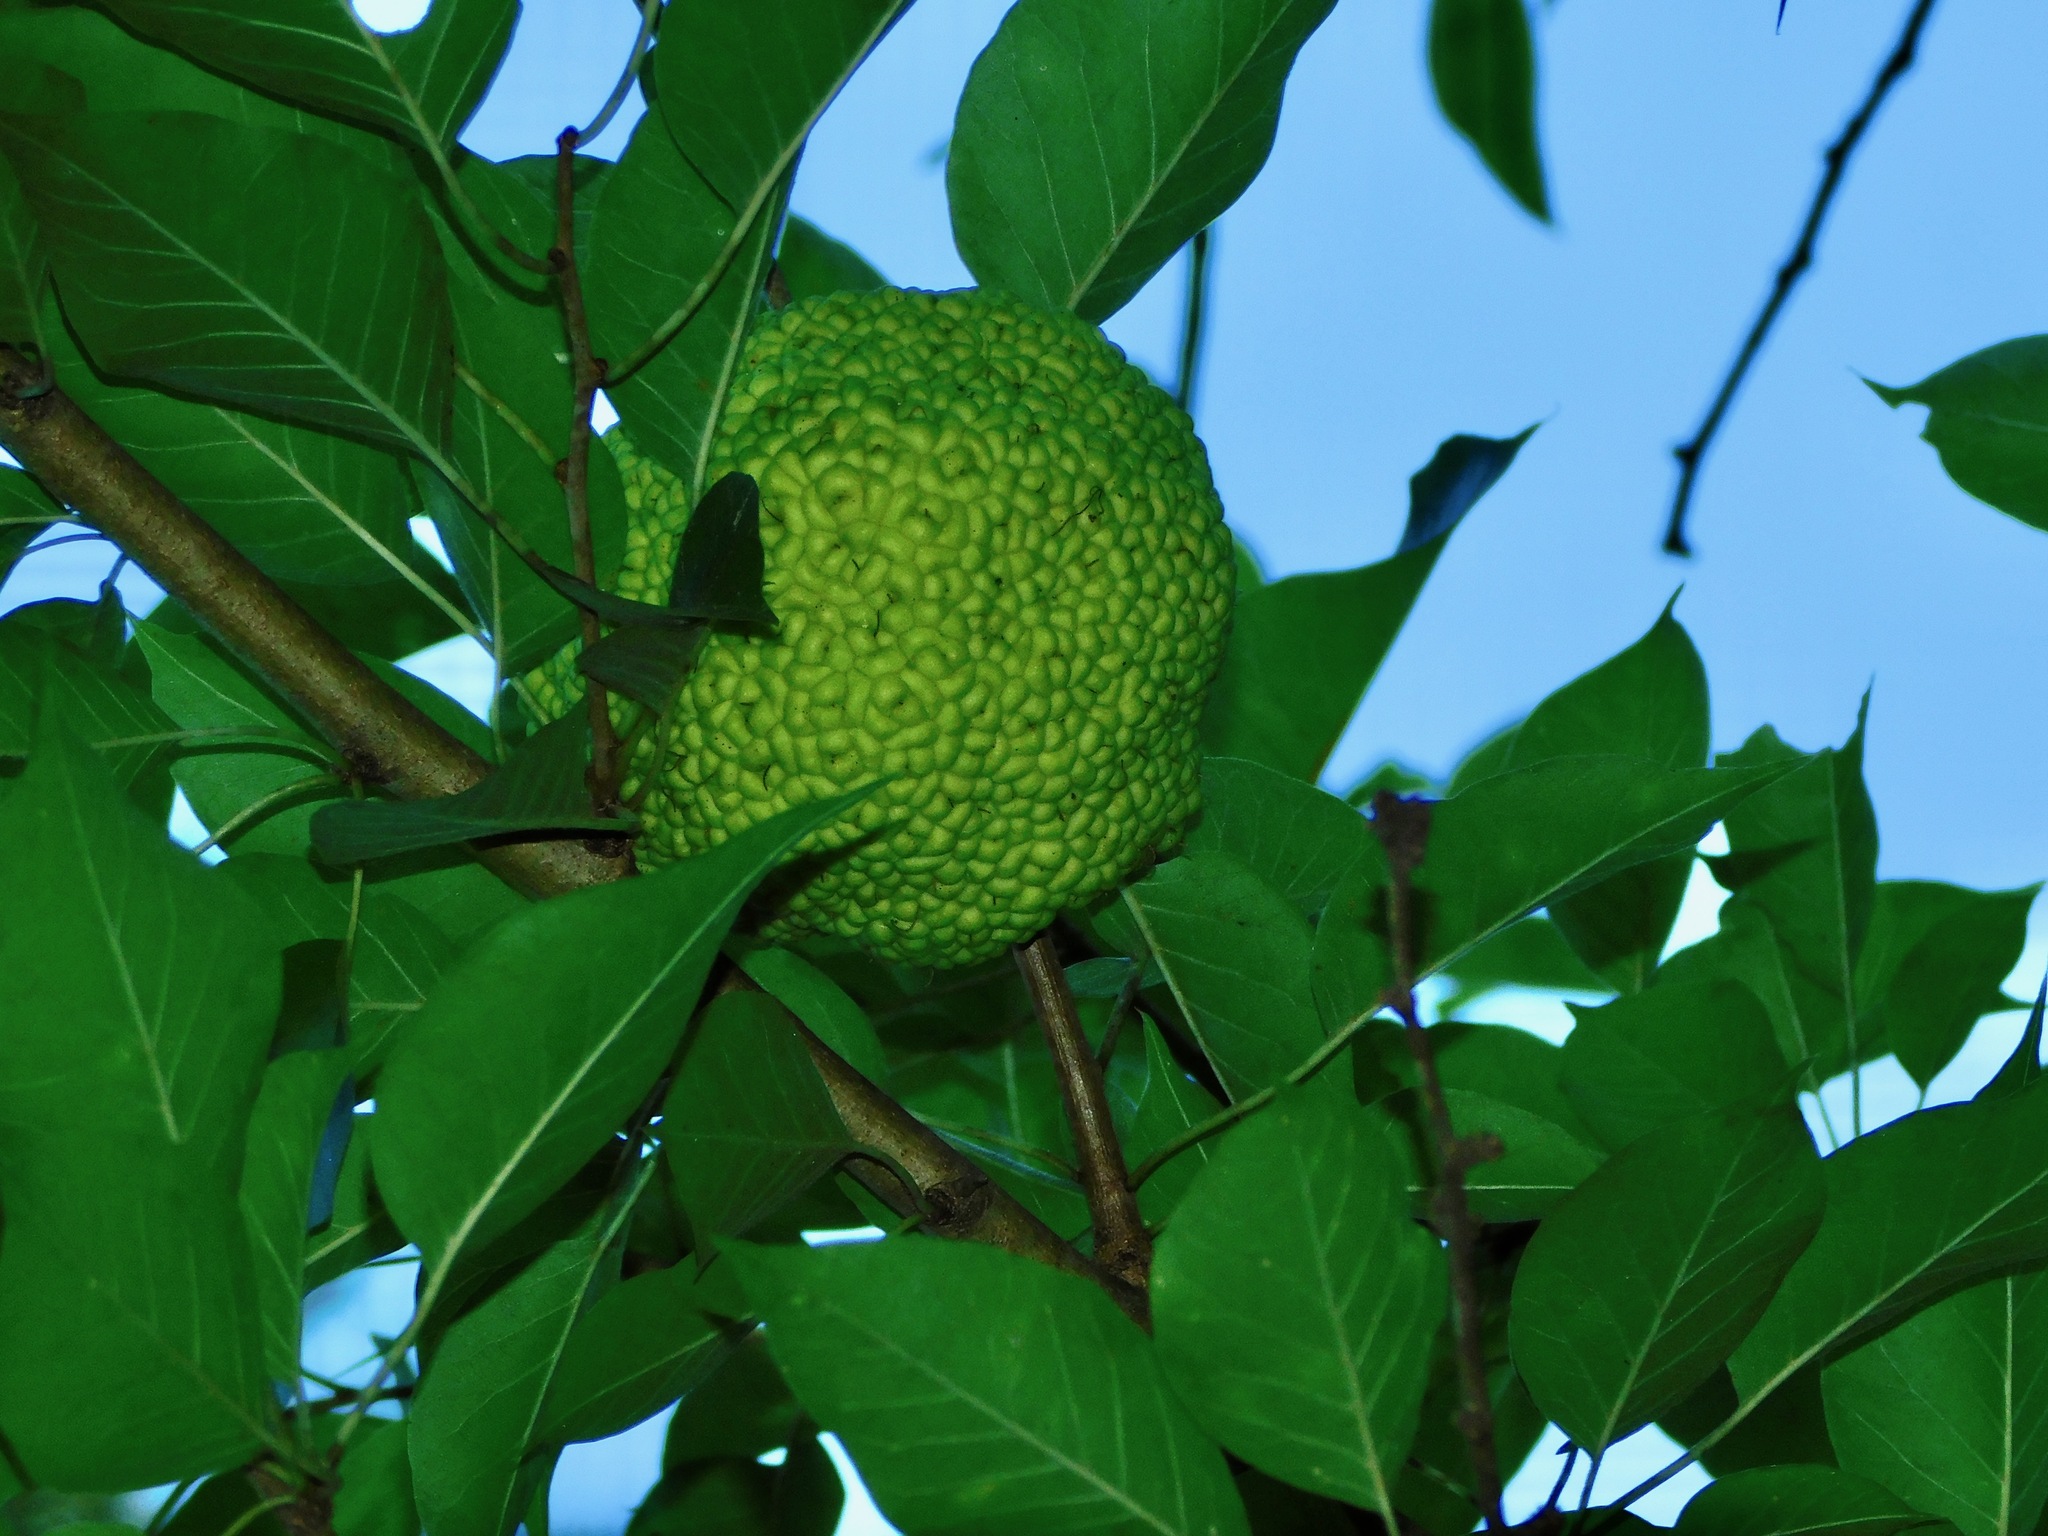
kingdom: Plantae
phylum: Tracheophyta
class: Magnoliopsida
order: Rosales
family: Moraceae
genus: Maclura
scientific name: Maclura pomifera
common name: Osage-orange
